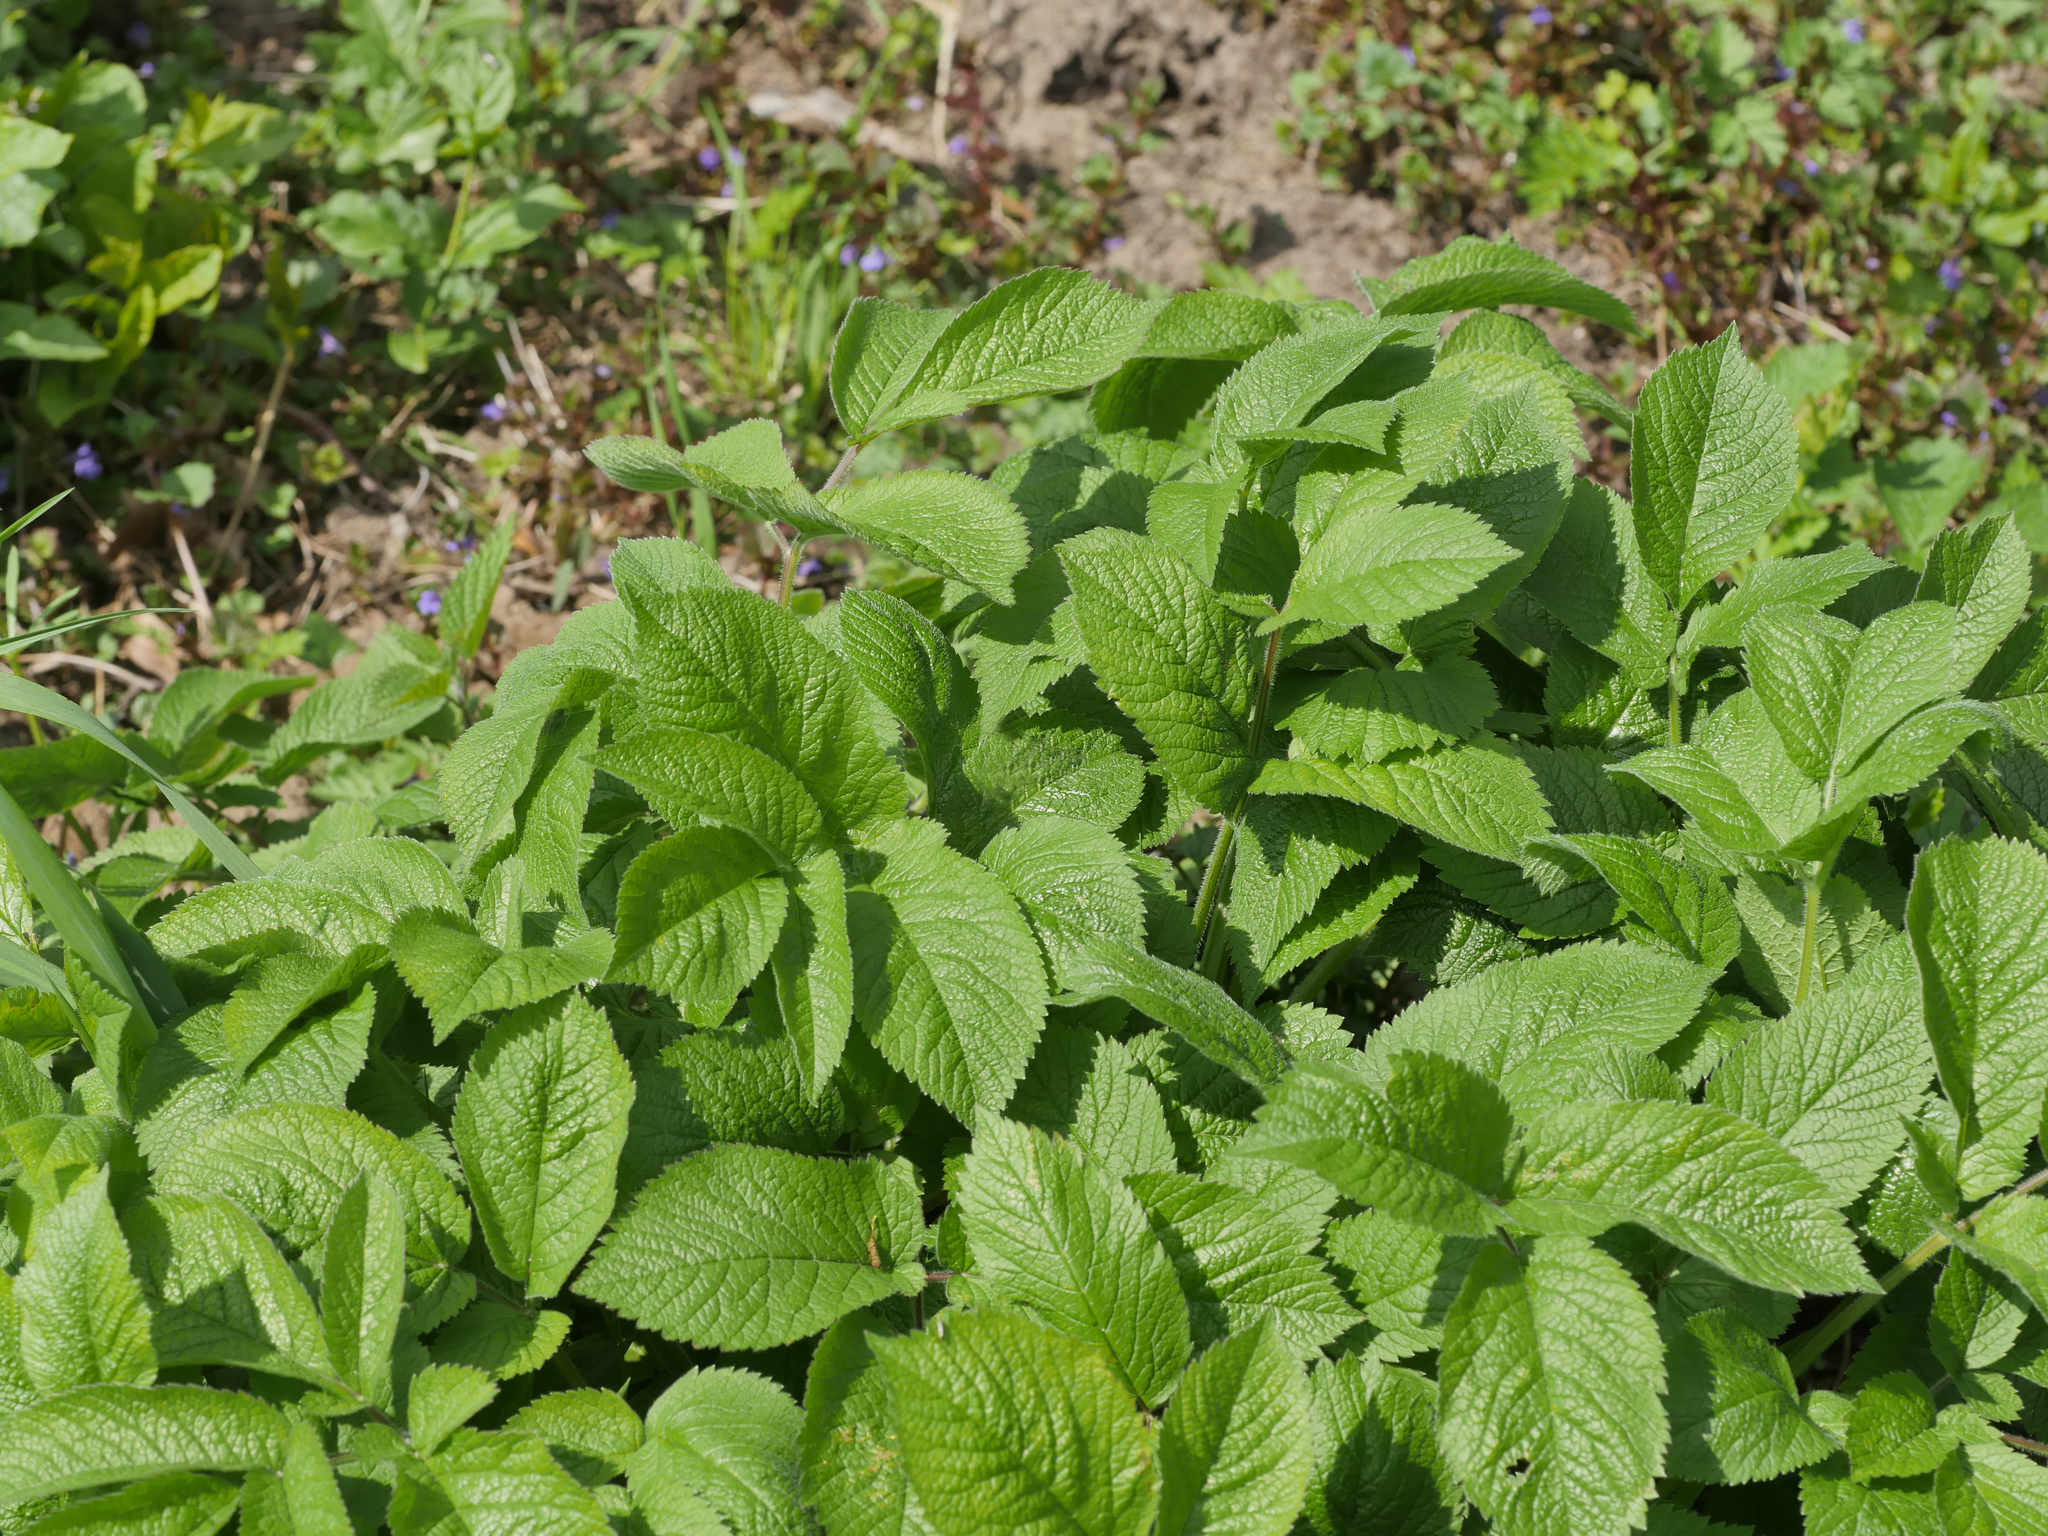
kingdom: Plantae
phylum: Tracheophyta
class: Magnoliopsida
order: Apiales
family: Apiaceae
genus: Chaerophyllum
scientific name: Chaerophyllum aromaticum
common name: Broadleaf chervil
